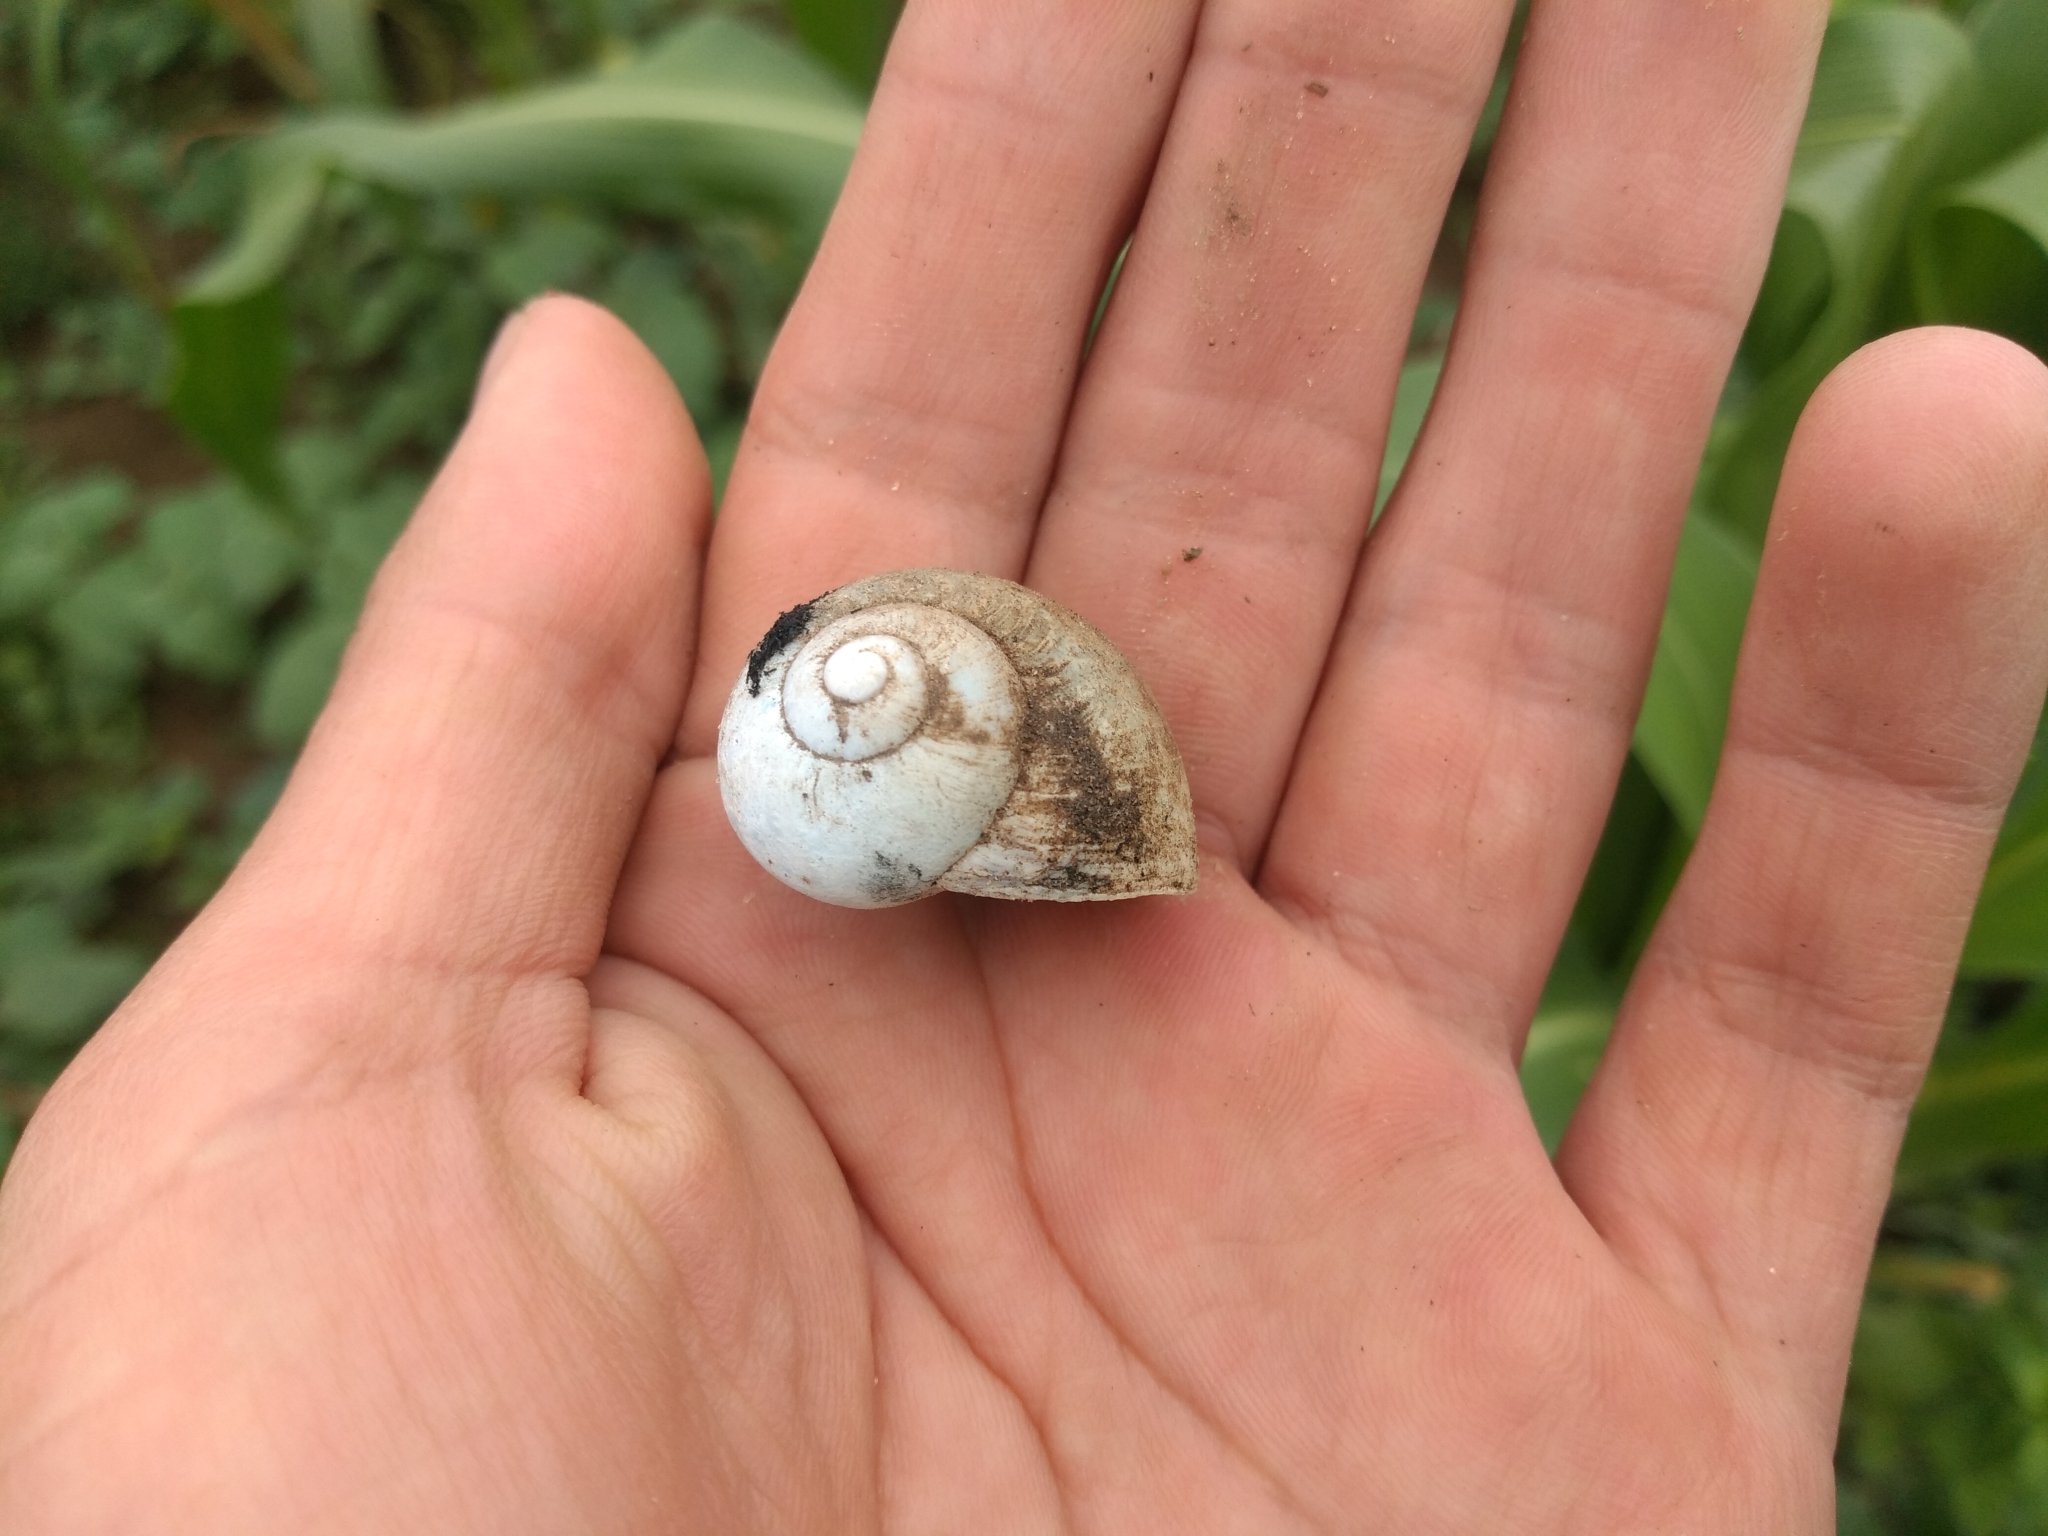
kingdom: Animalia
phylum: Mollusca
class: Gastropoda
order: Stylommatophora
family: Helicidae
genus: Cornu
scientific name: Cornu aspersum
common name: Brown garden snail
